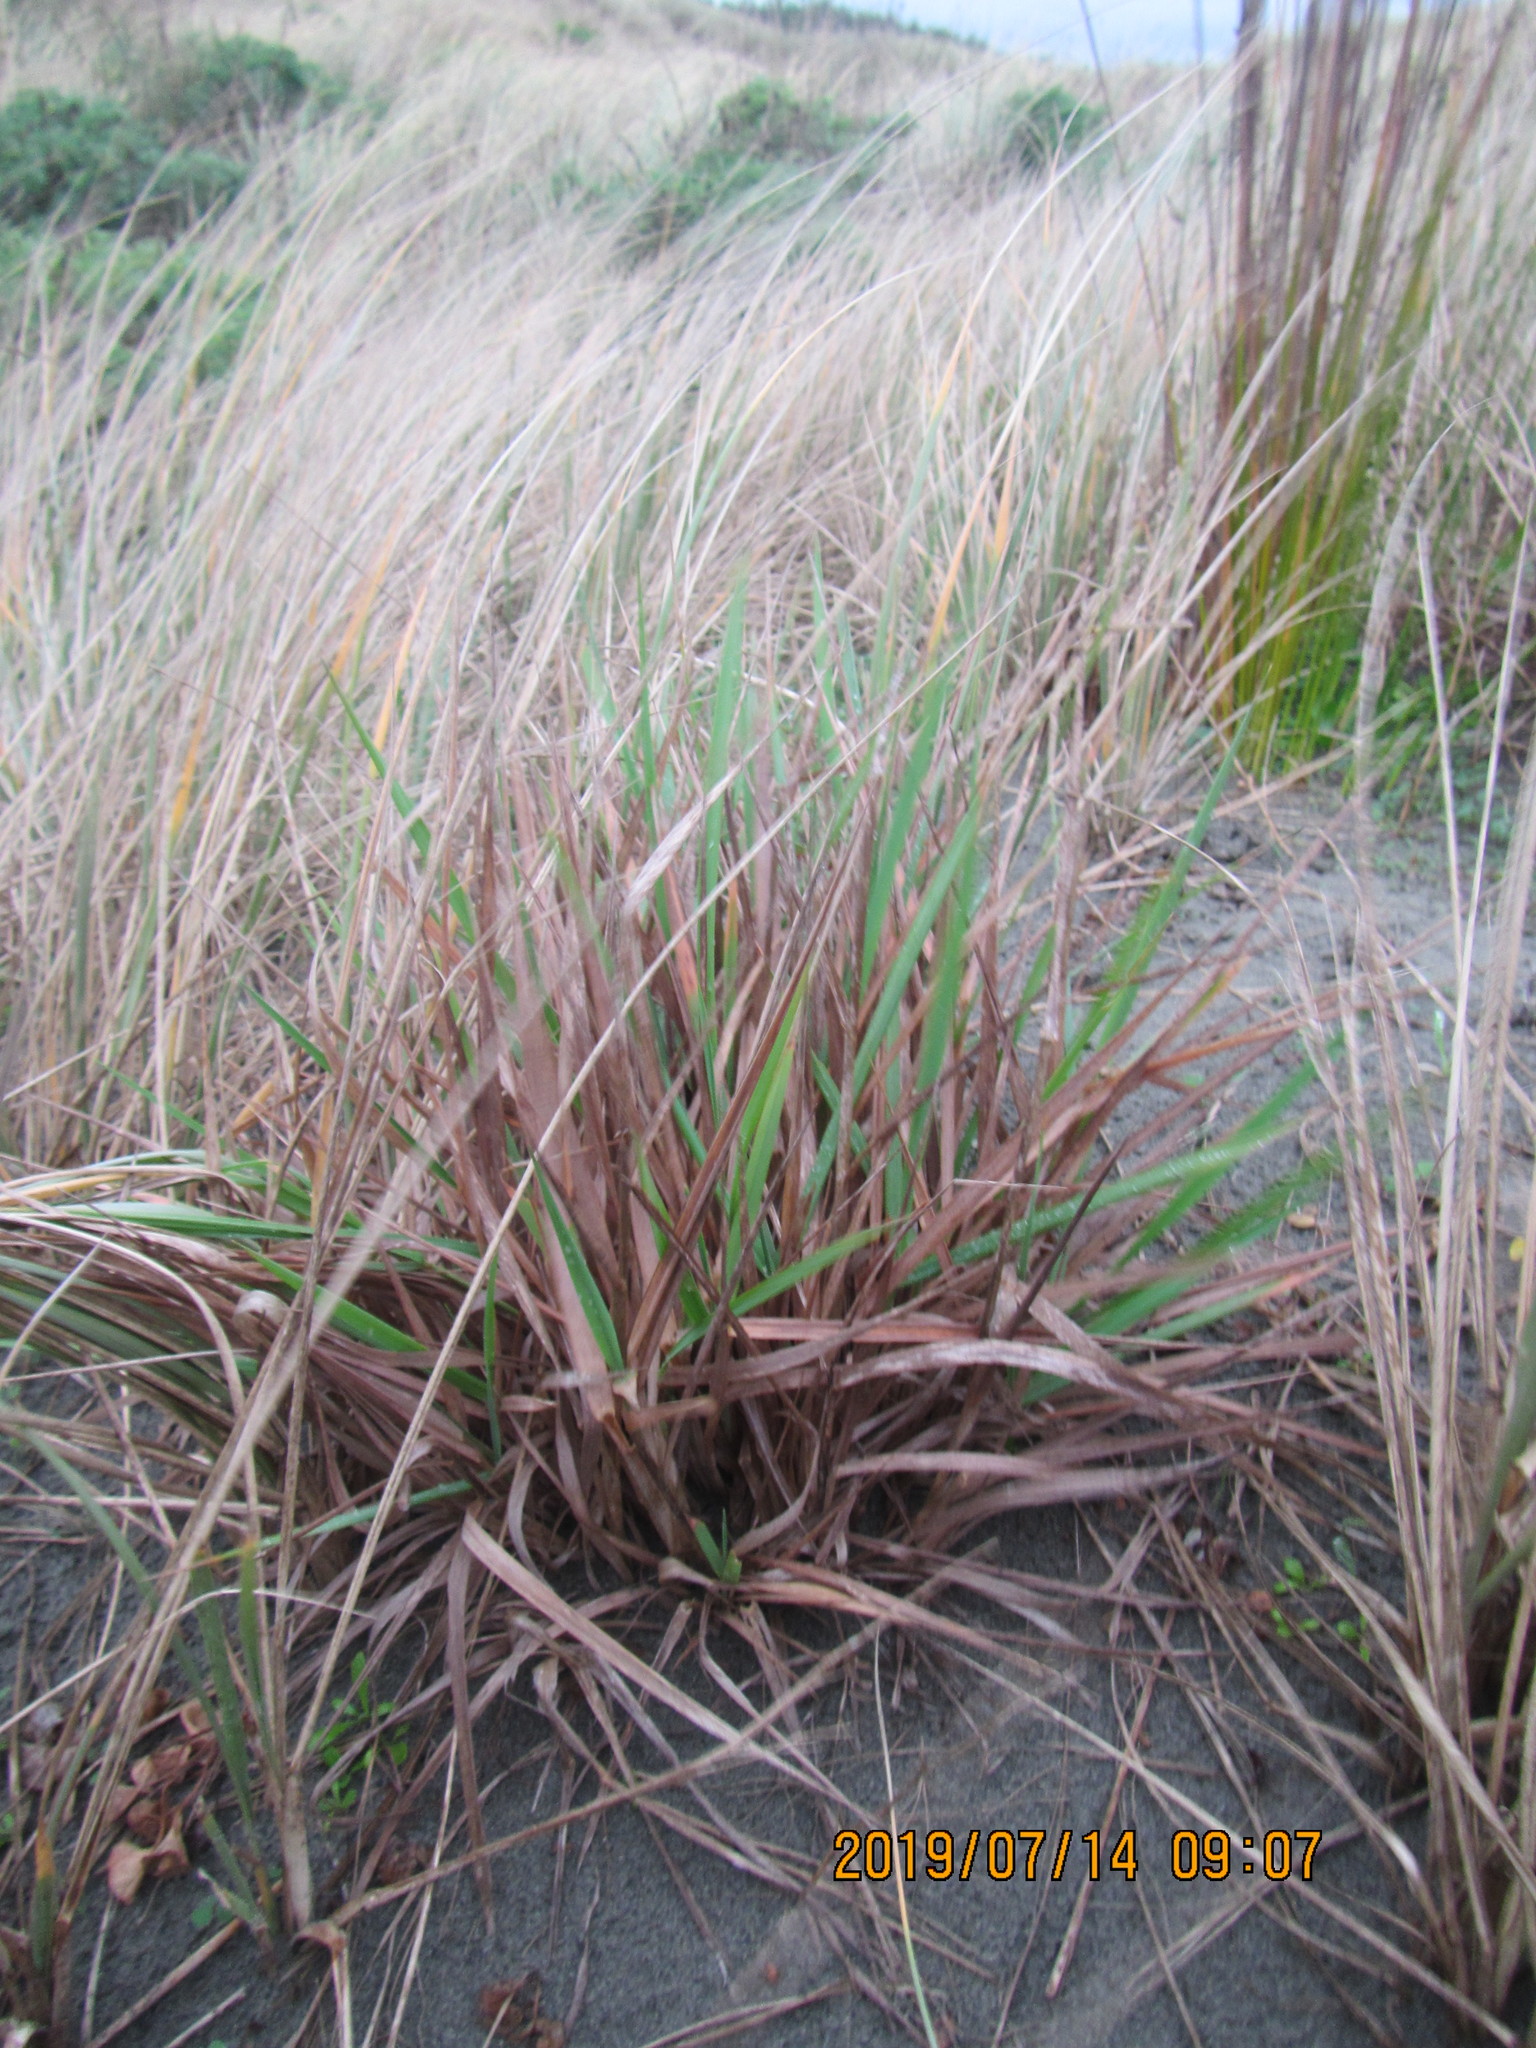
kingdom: Plantae
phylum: Tracheophyta
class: Liliopsida
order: Poales
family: Poaceae
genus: Lachnagrostis
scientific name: Lachnagrostis billardierei
